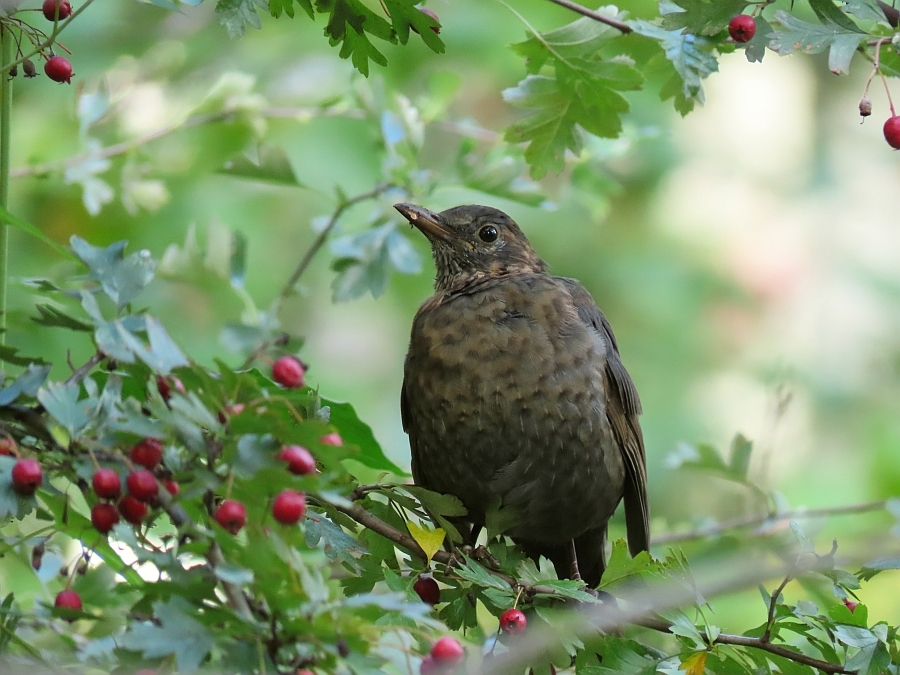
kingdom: Animalia
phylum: Chordata
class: Aves
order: Passeriformes
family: Turdidae
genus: Turdus
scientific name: Turdus merula
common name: Common blackbird
